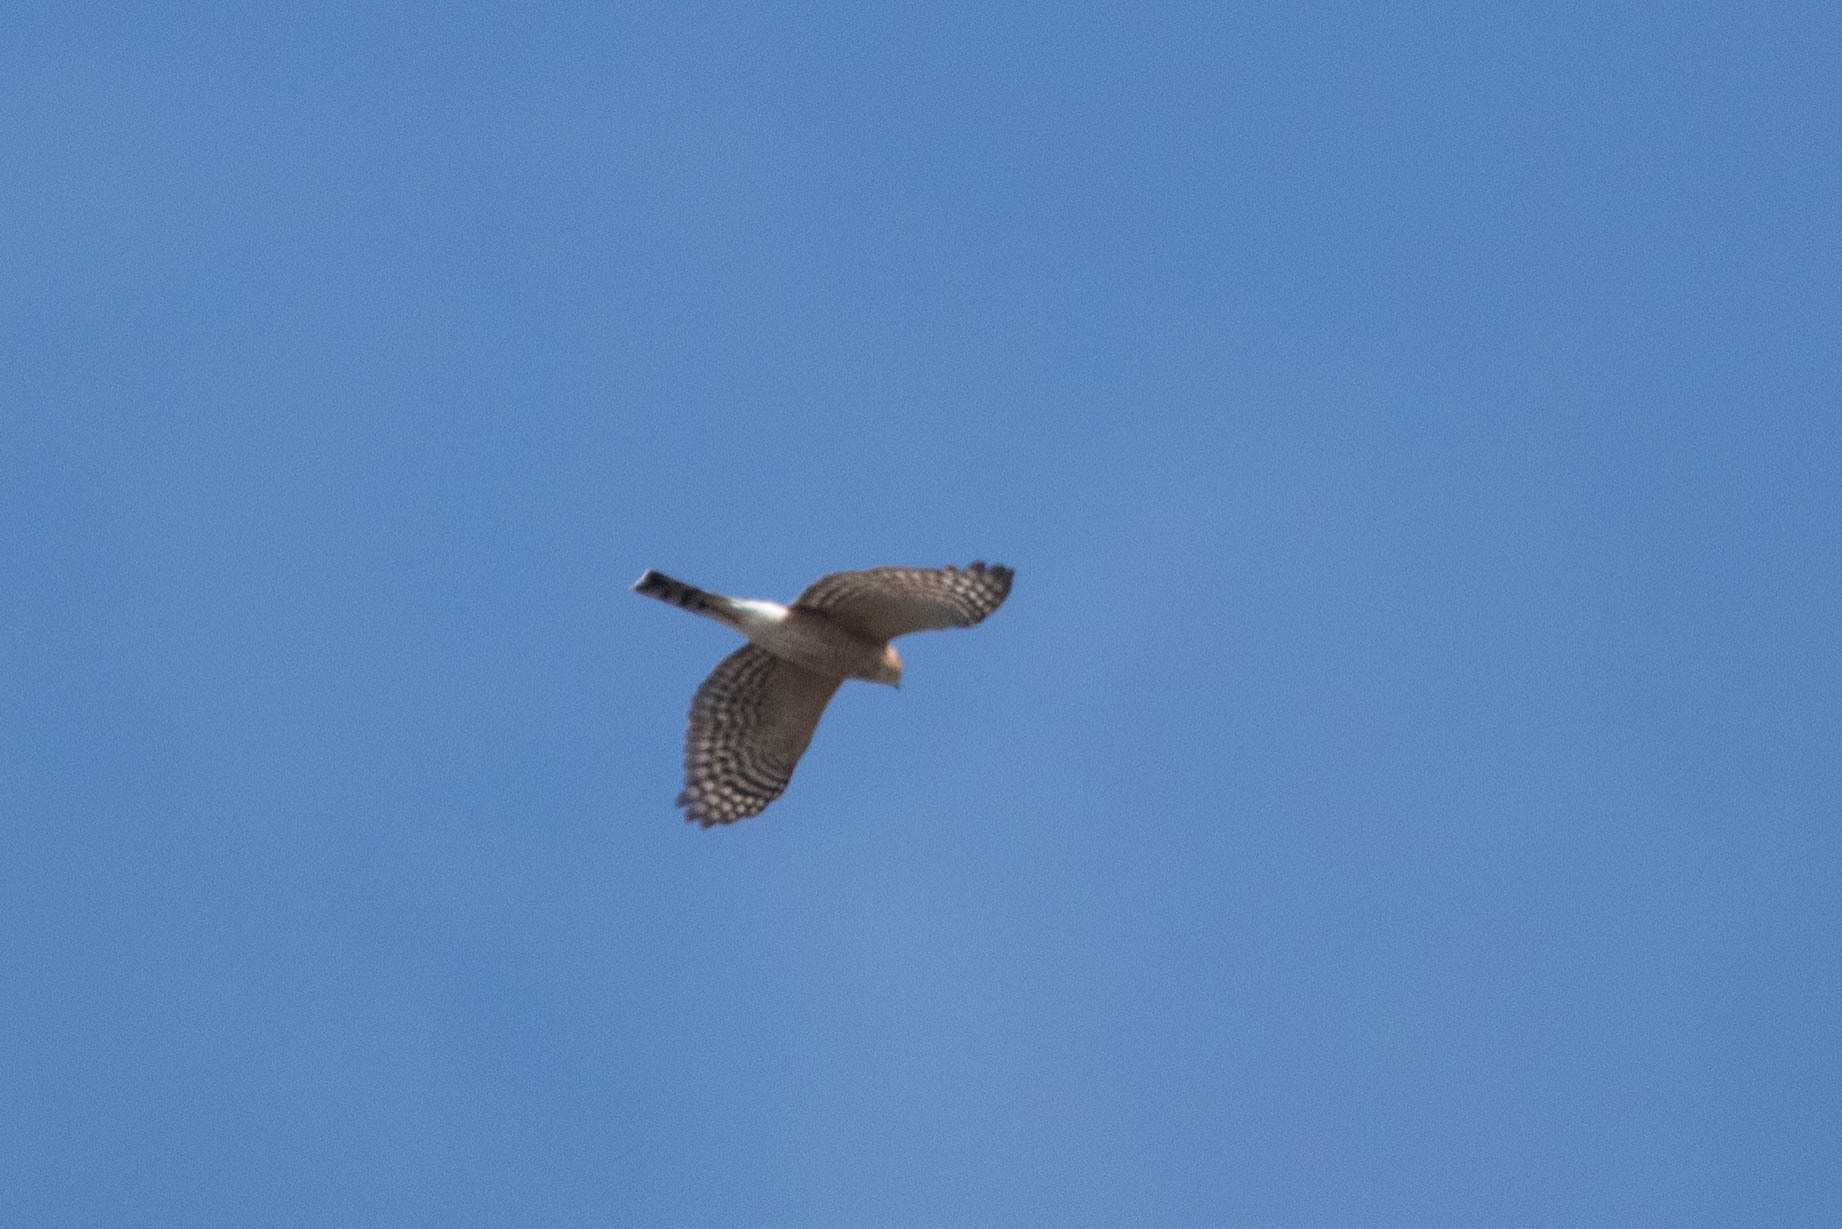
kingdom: Animalia
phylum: Chordata
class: Aves
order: Accipitriformes
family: Accipitridae
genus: Accipiter
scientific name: Accipiter striatus
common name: Sharp-shinned hawk
